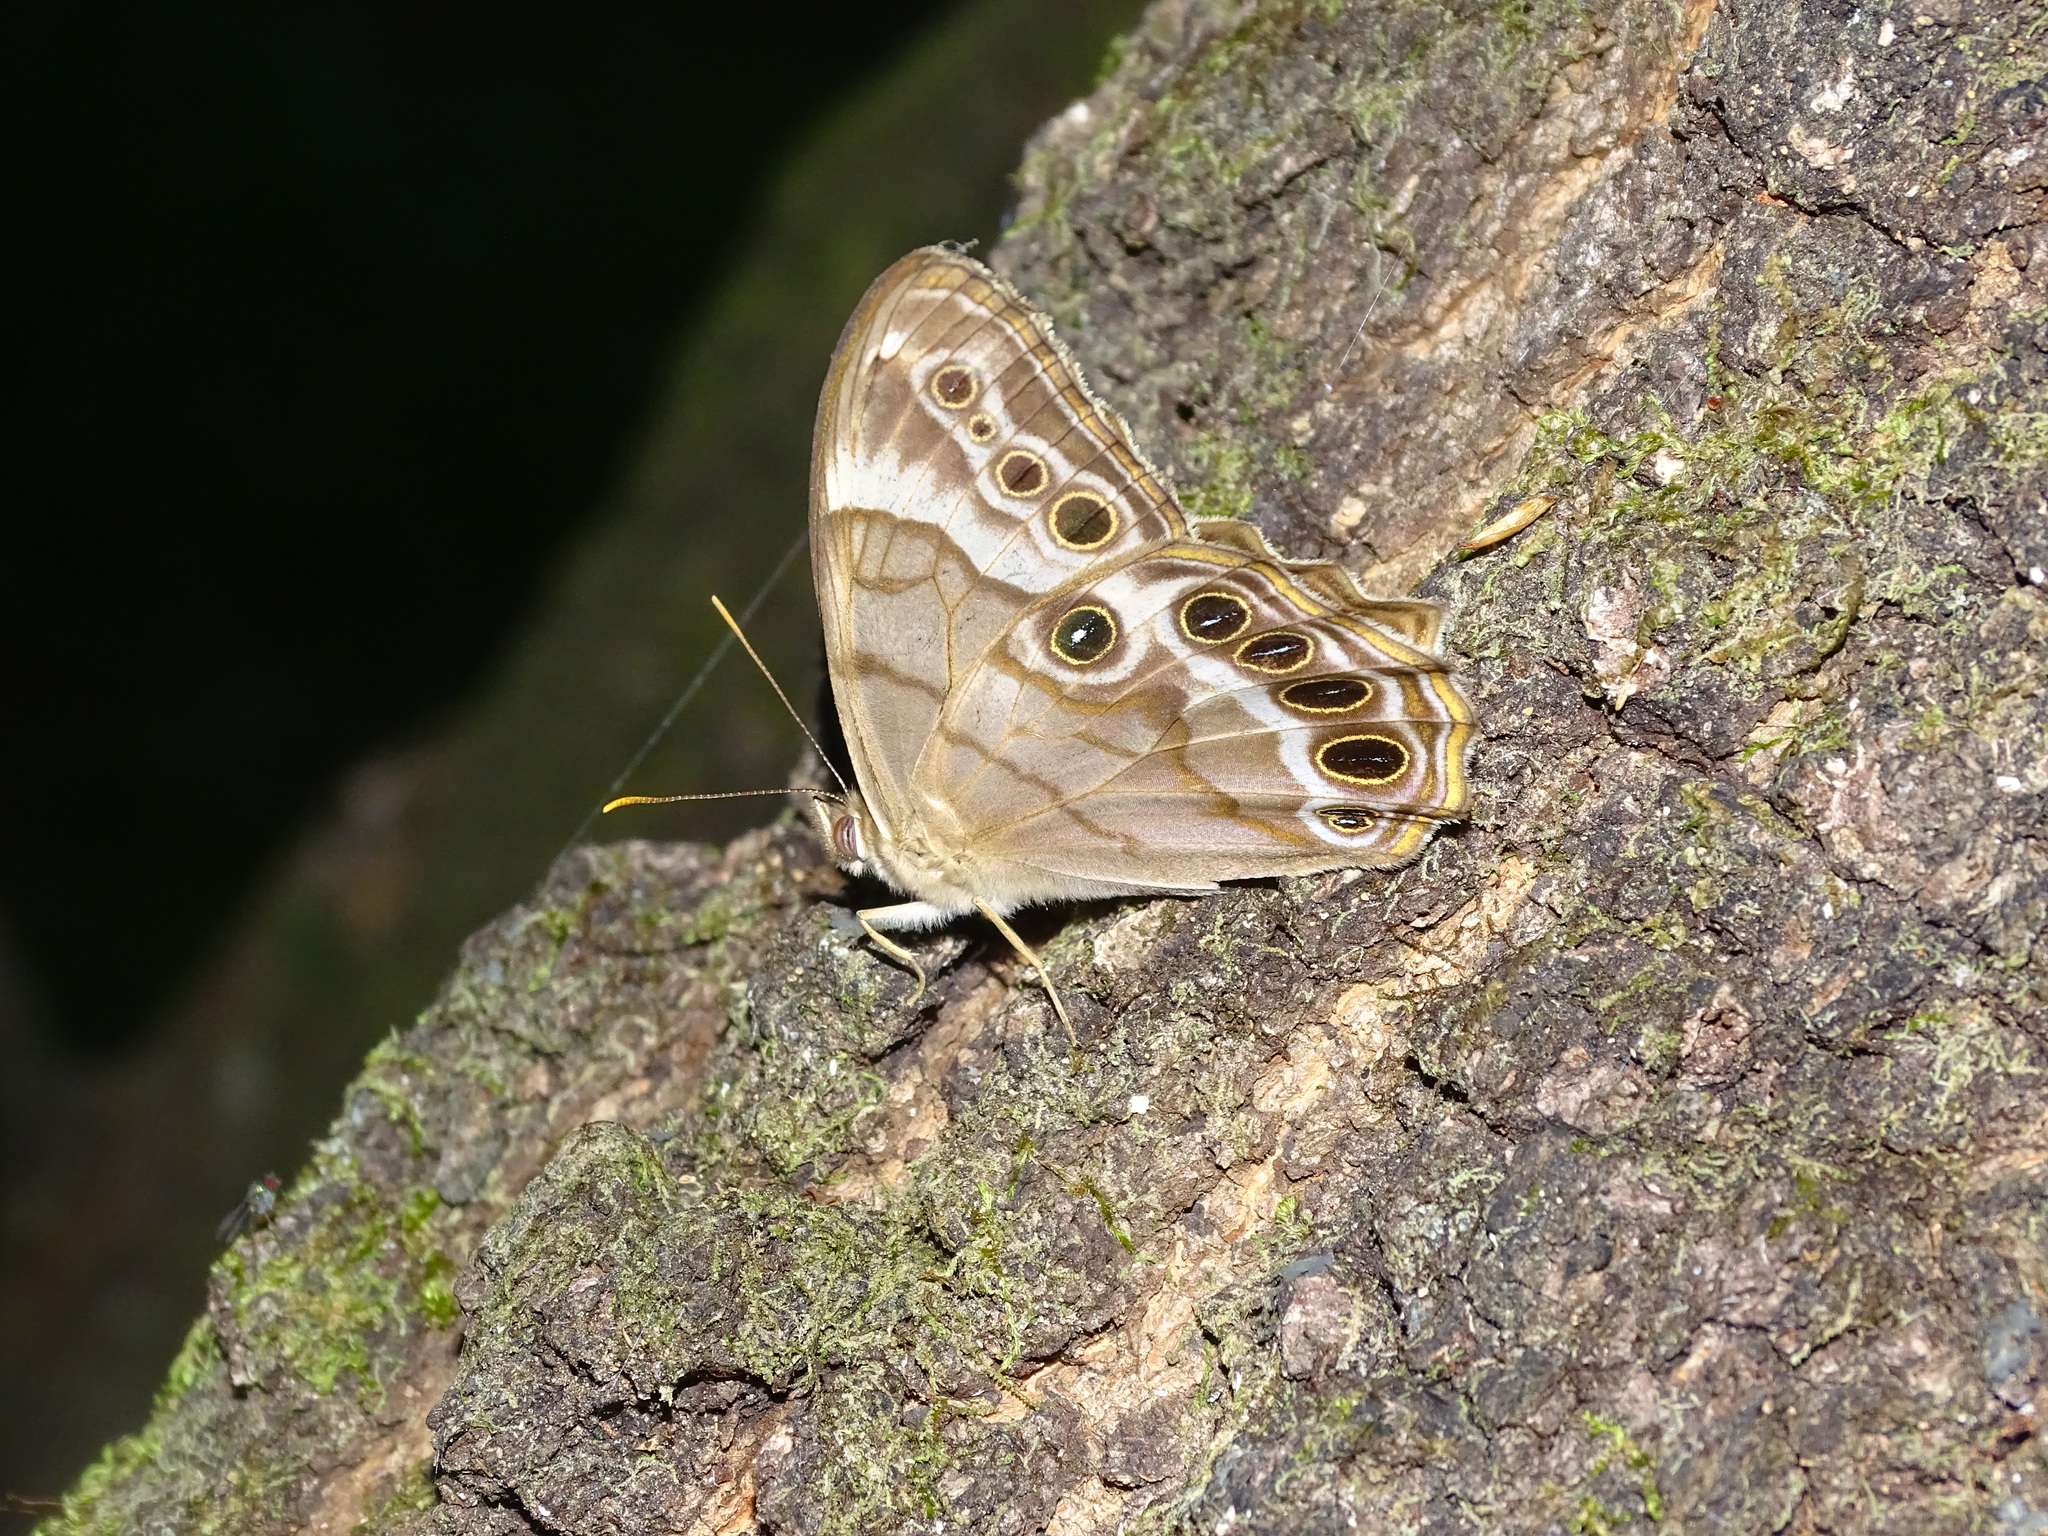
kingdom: Animalia
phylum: Arthropoda
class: Insecta
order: Lepidoptera
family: Nymphalidae
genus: Enodia
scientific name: Enodia portlandia
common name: Southern pearly-eye
